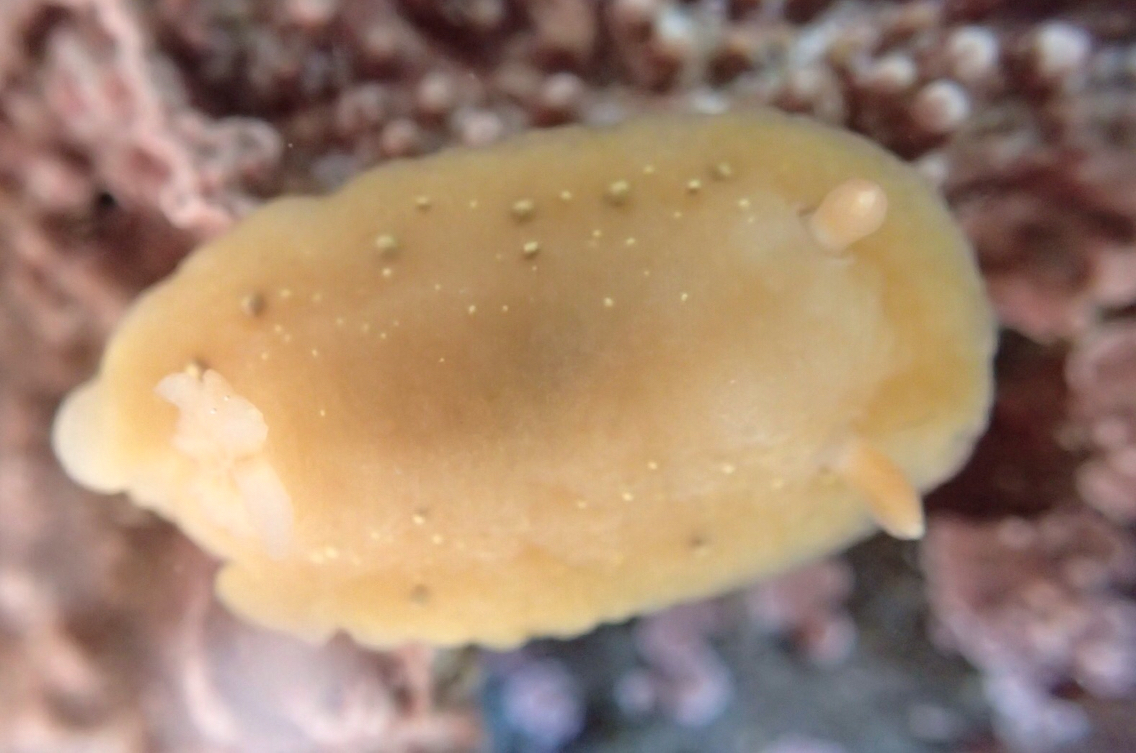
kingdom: Animalia
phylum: Mollusca
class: Gastropoda
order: Nudibranchia
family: Cadlinidae
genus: Cadlina
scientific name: Cadlina sparsa
